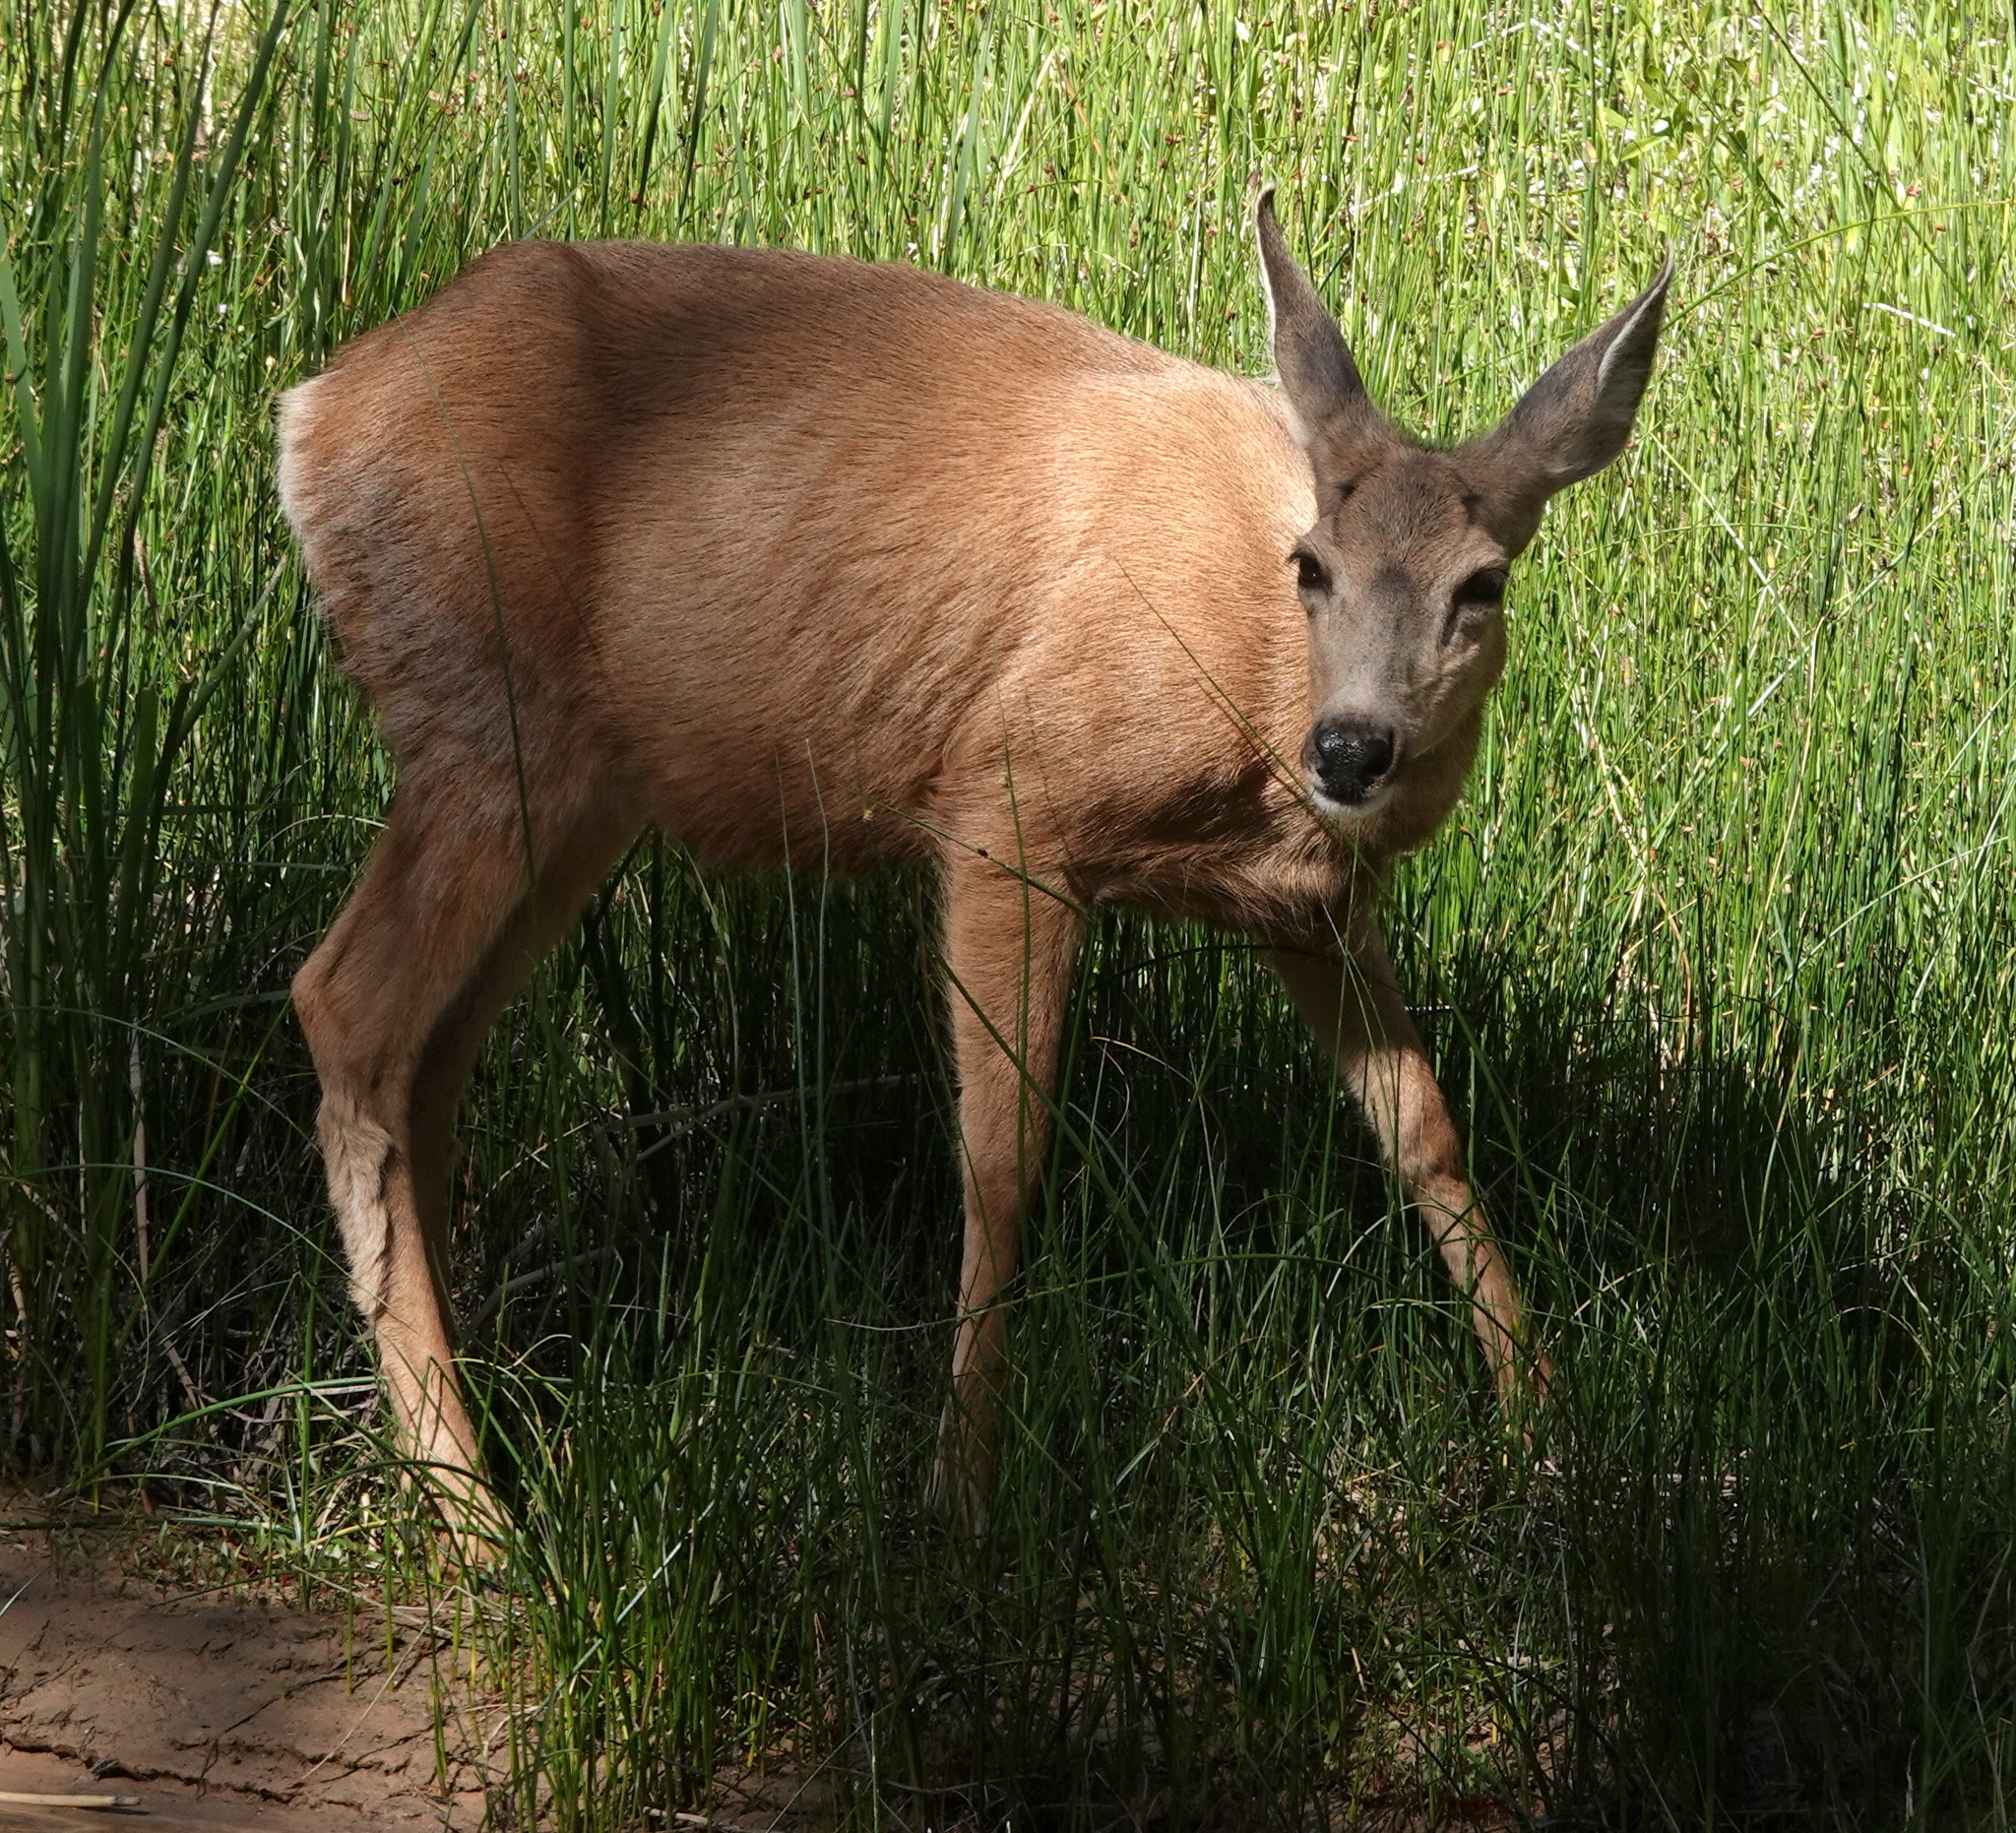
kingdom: Animalia
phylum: Chordata
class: Mammalia
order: Artiodactyla
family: Cervidae
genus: Odocoileus
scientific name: Odocoileus hemionus
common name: Mule deer
